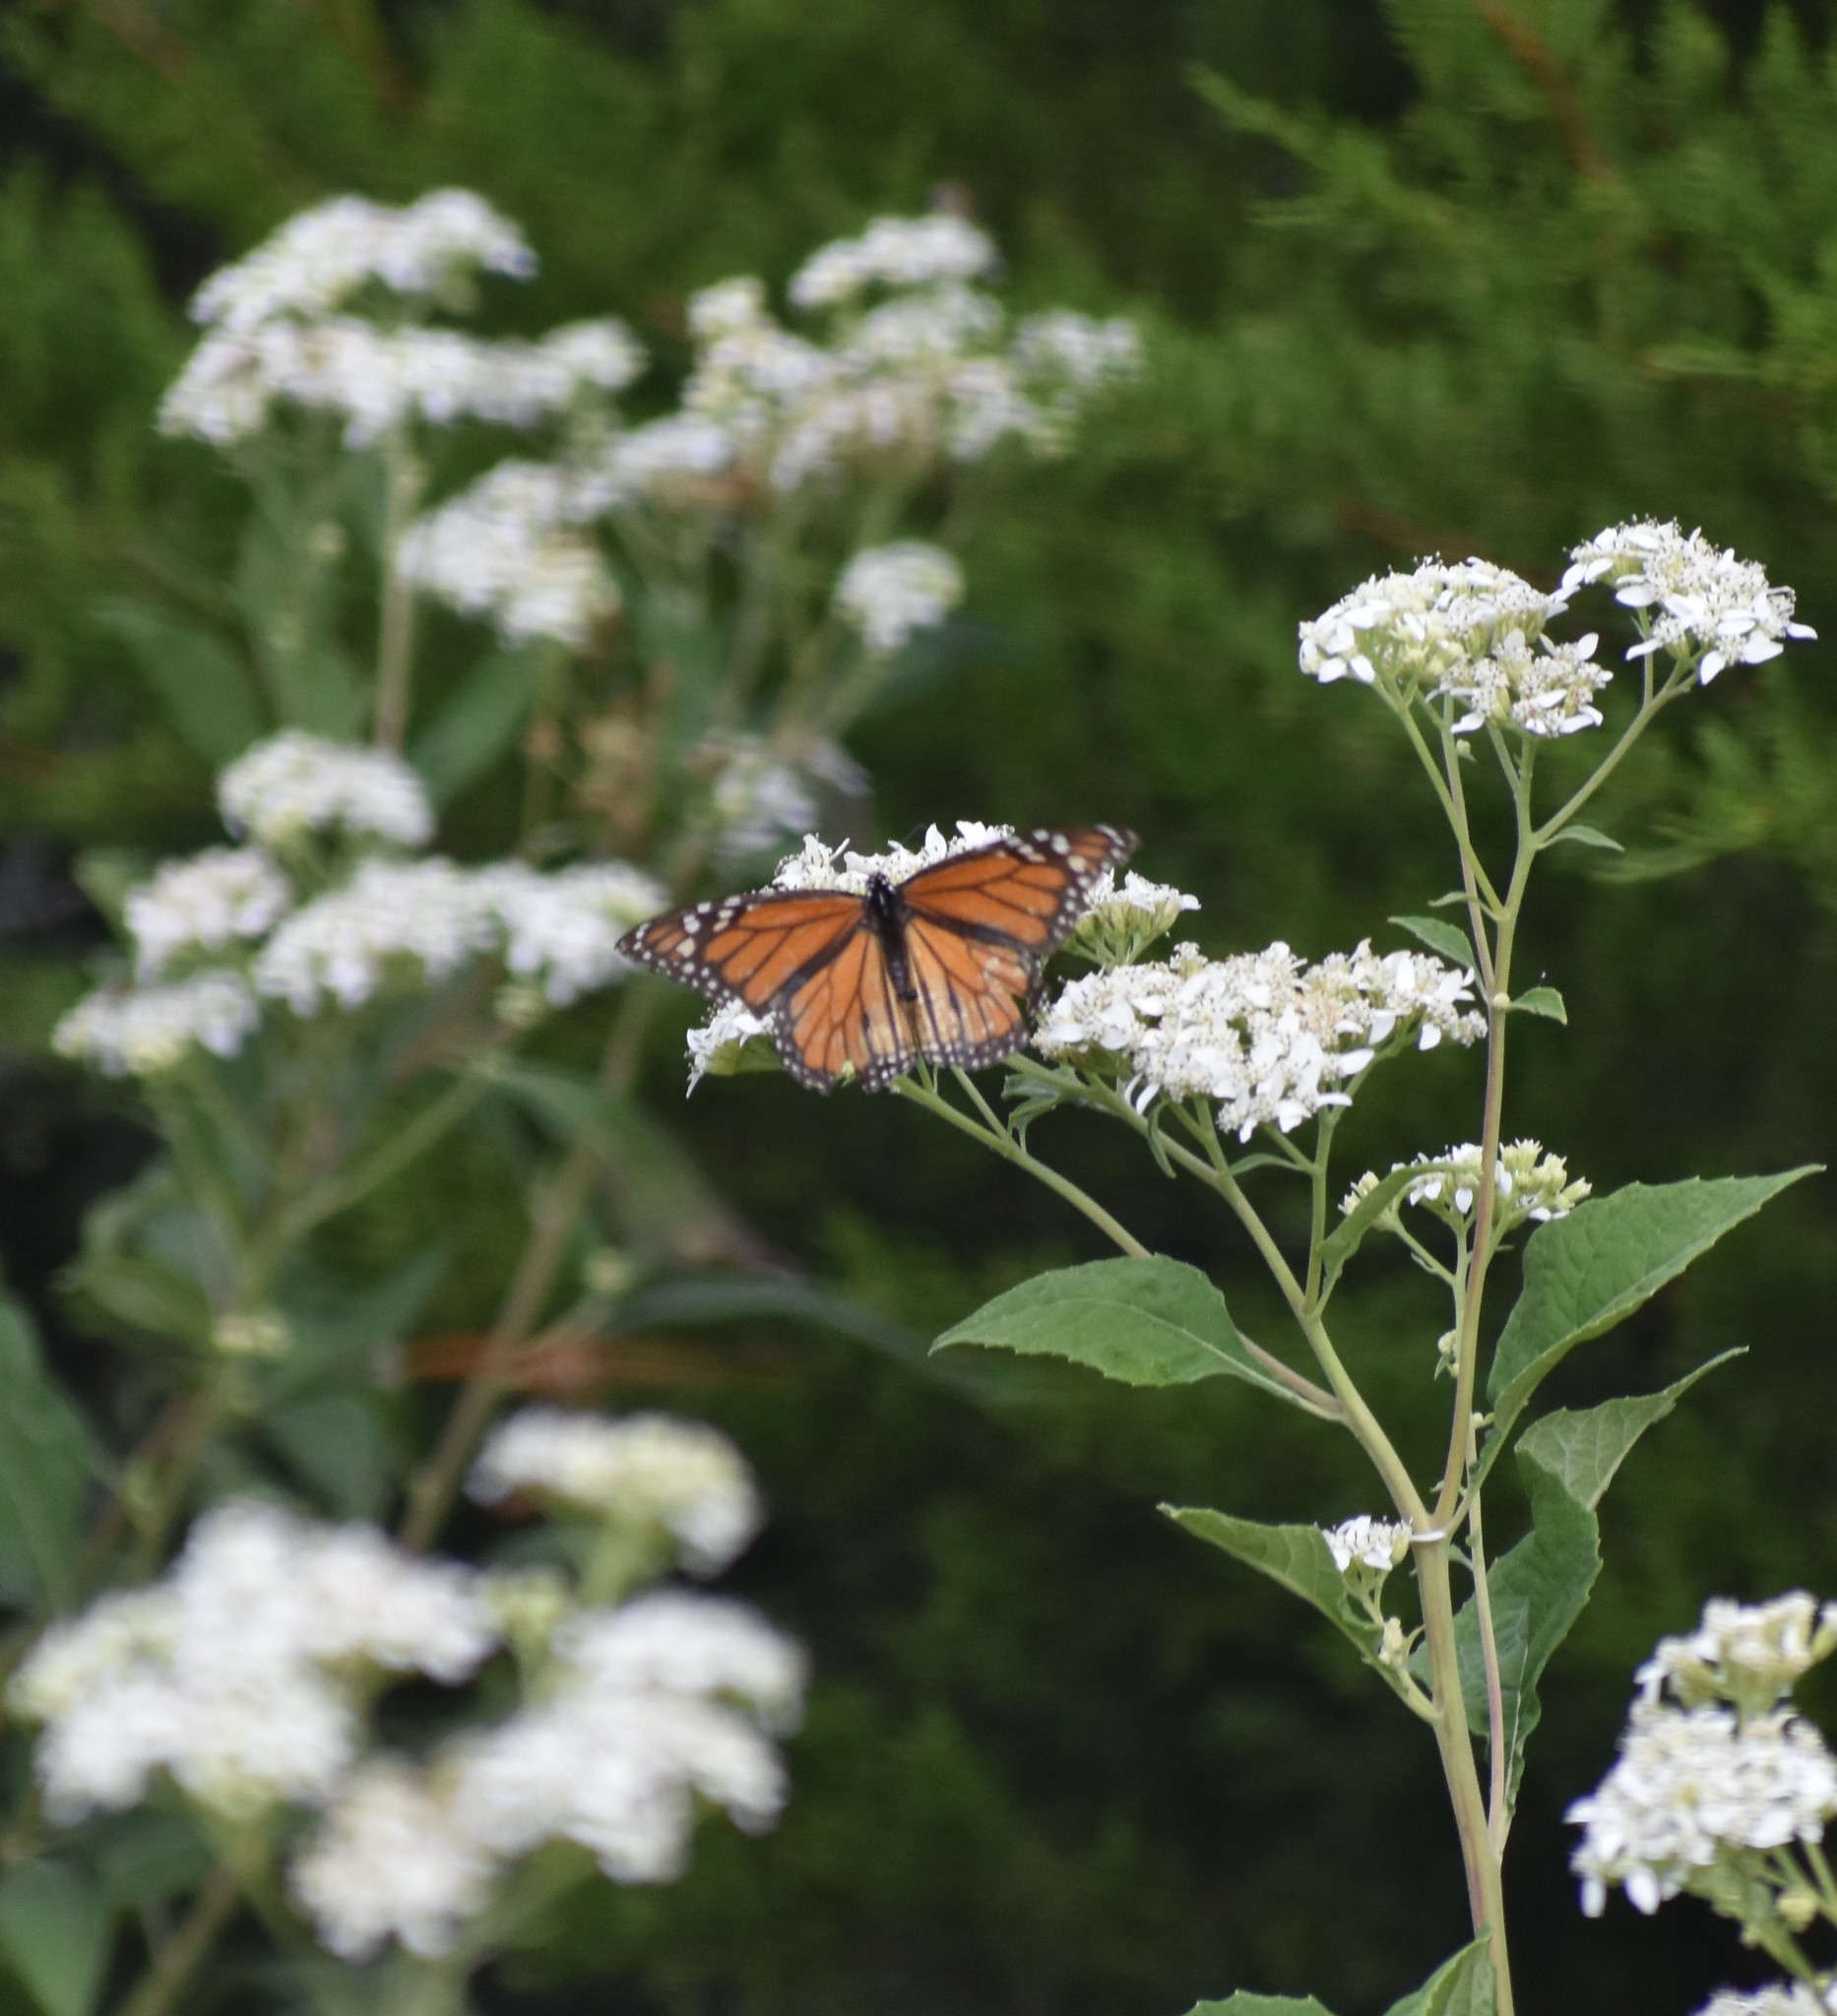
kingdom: Animalia
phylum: Arthropoda
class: Insecta
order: Lepidoptera
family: Nymphalidae
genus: Danaus
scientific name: Danaus plexippus
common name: Monarch
